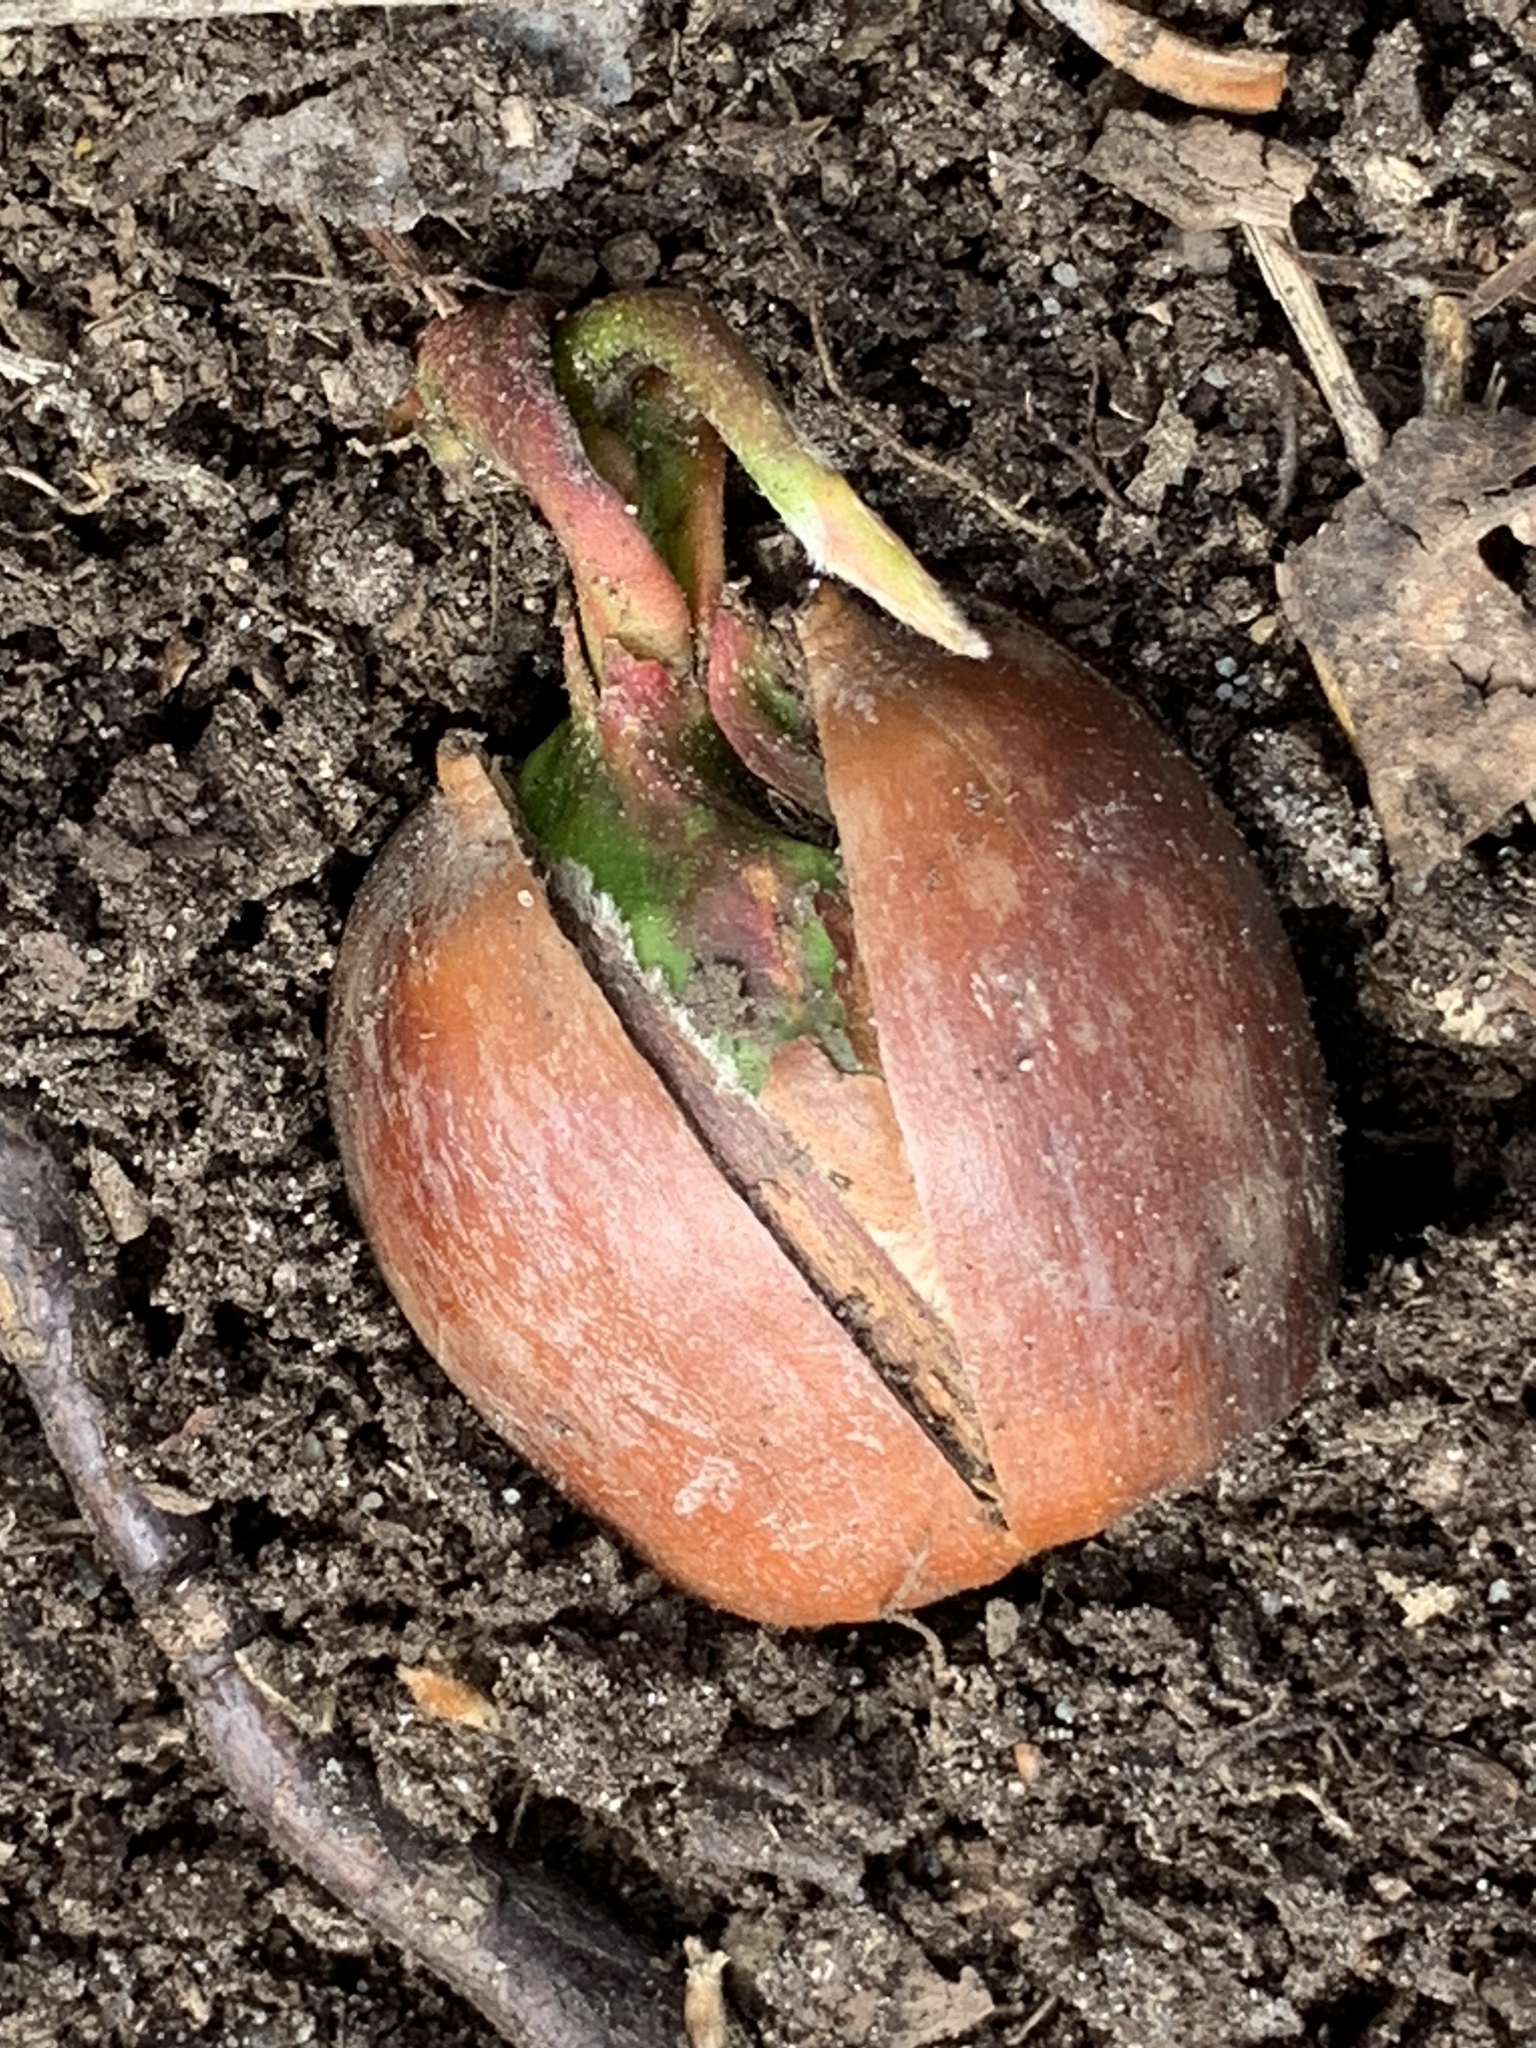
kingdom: Plantae
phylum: Tracheophyta
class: Magnoliopsida
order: Fagales
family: Fagaceae
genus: Quercus
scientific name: Quercus rubra
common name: Red oak
